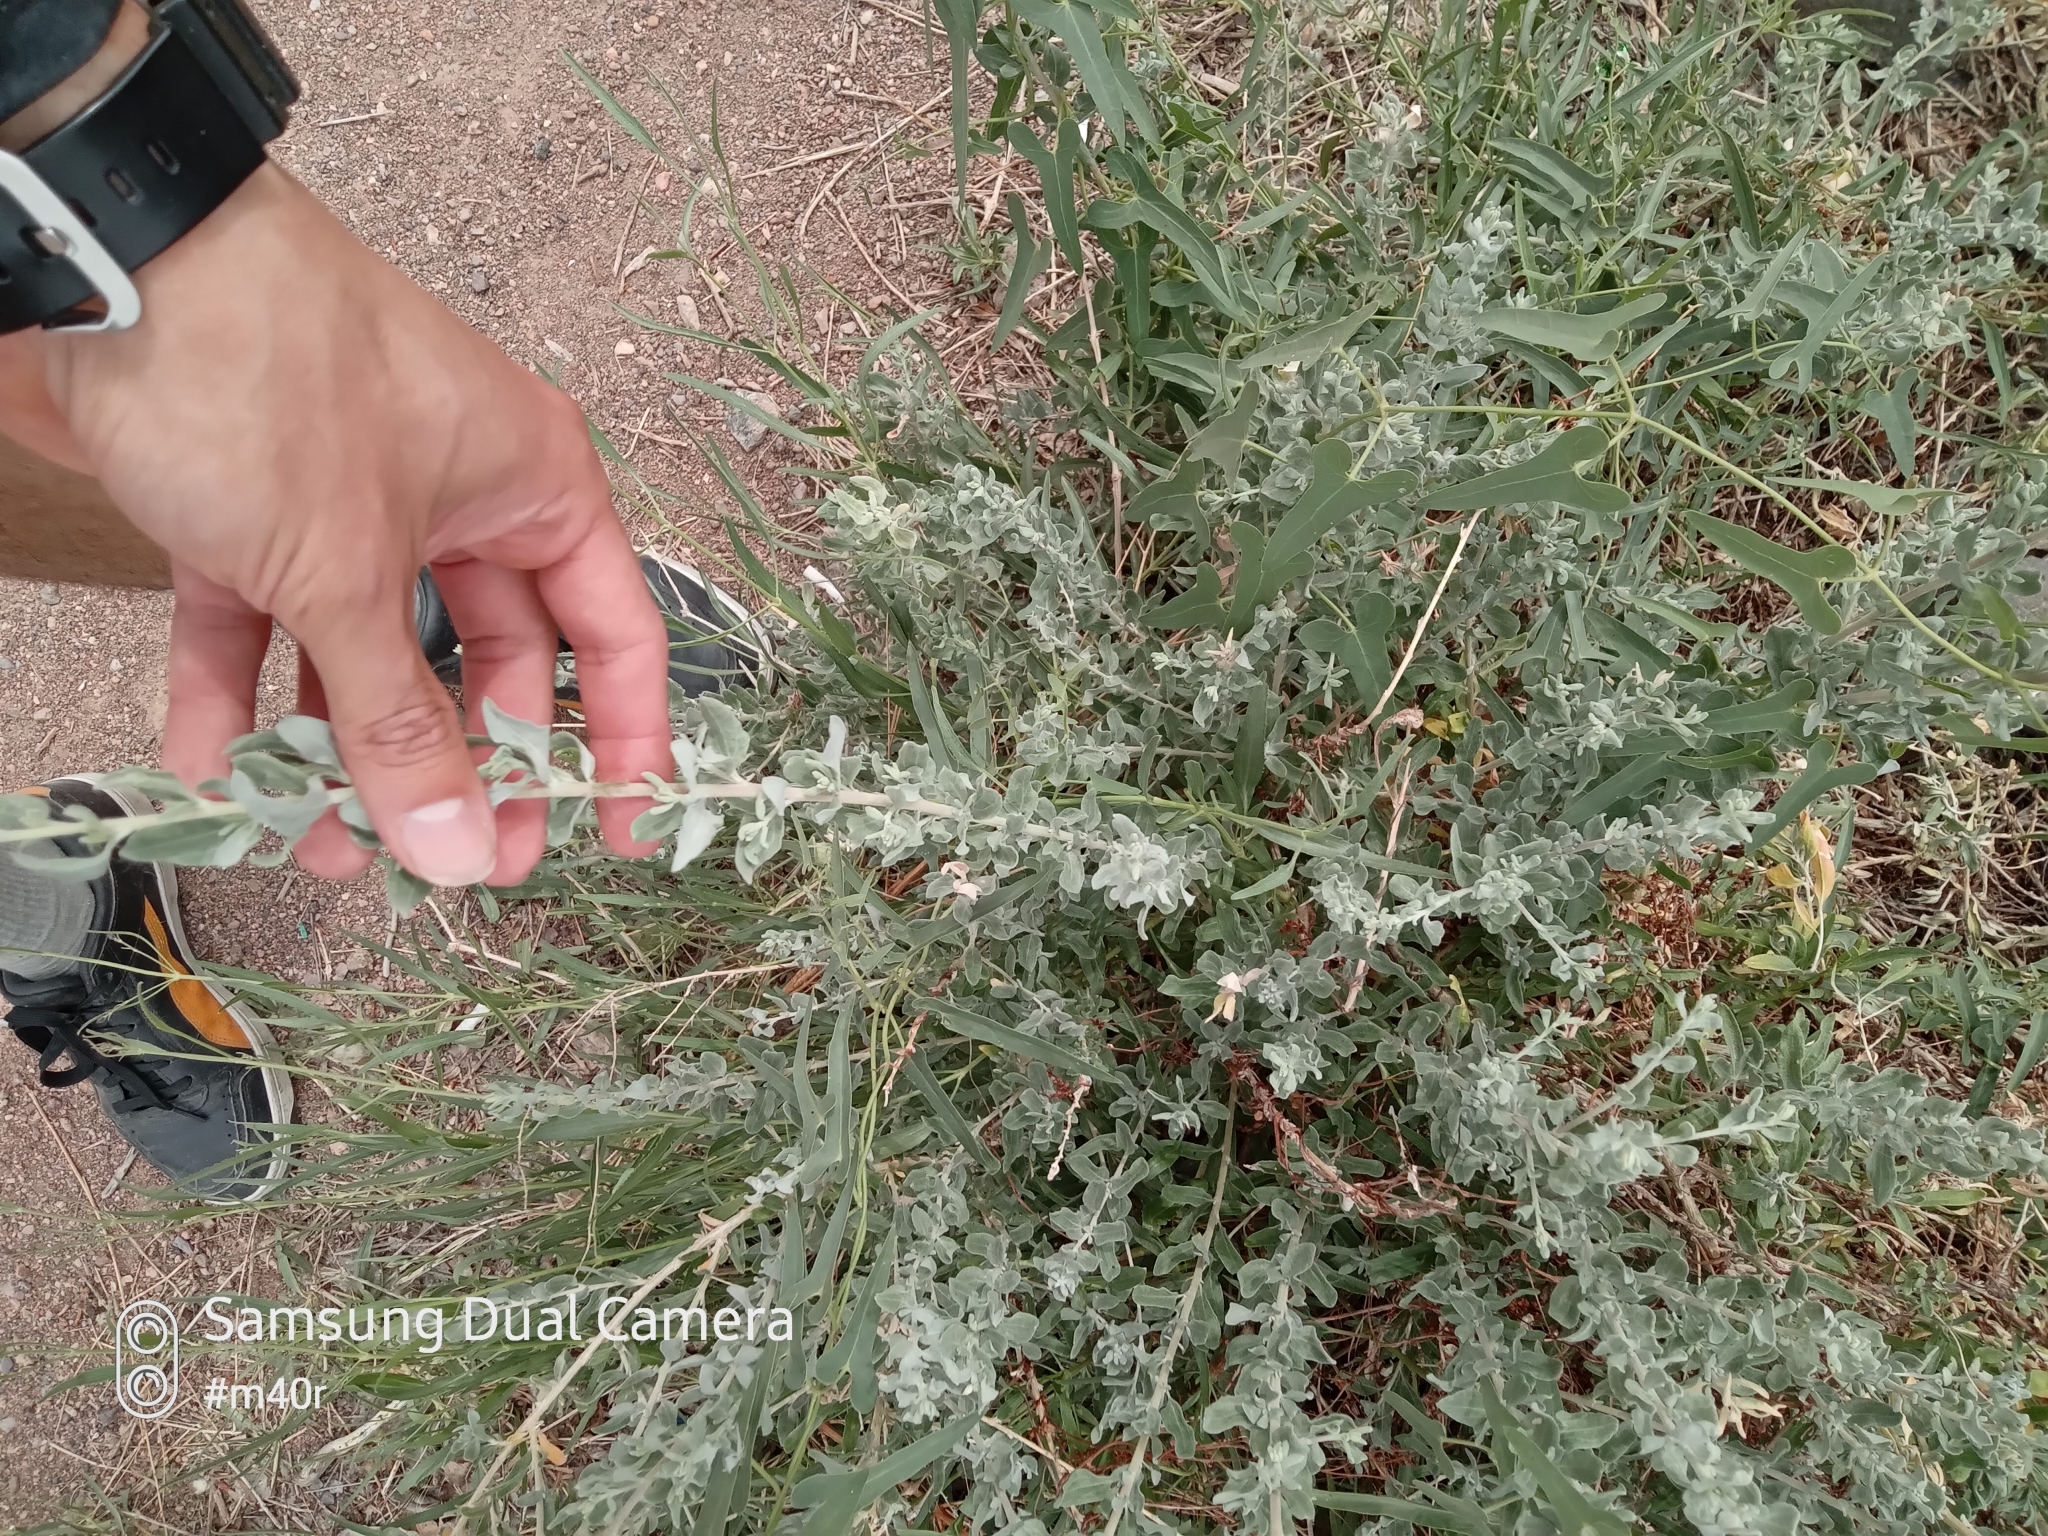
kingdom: Plantae
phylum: Tracheophyta
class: Magnoliopsida
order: Gentianales
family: Apocynaceae
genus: Cynanchum
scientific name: Cynanchum acutum
